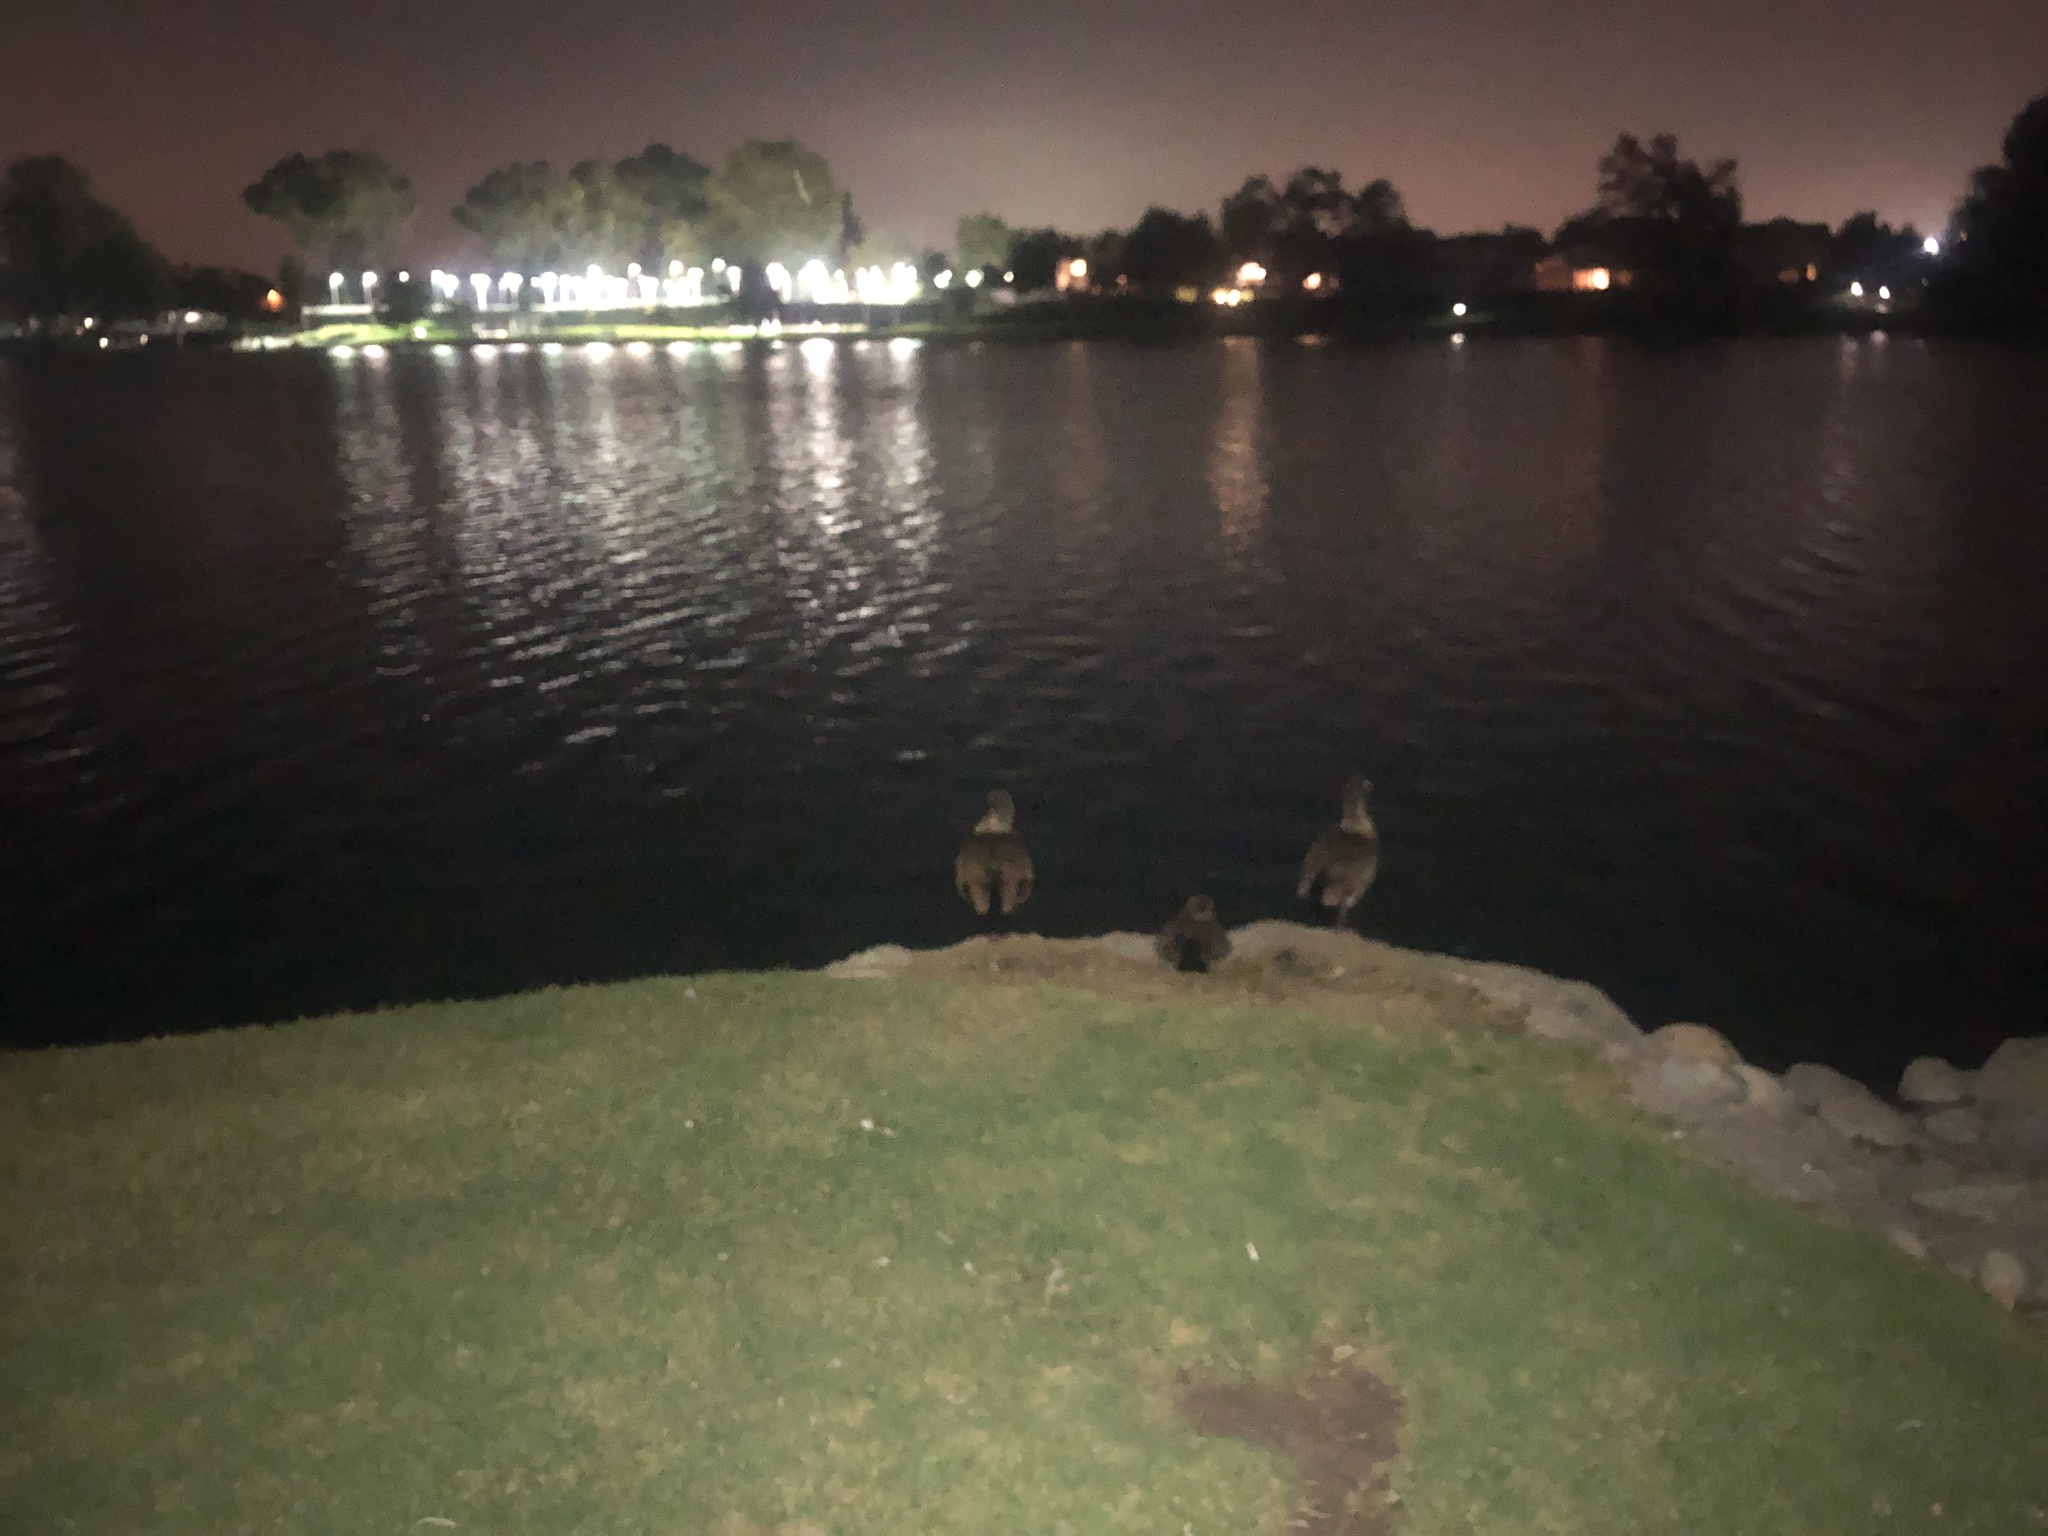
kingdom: Animalia
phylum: Chordata
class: Aves
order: Anseriformes
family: Anatidae
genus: Alopochen
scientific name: Alopochen aegyptiaca
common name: Egyptian goose
